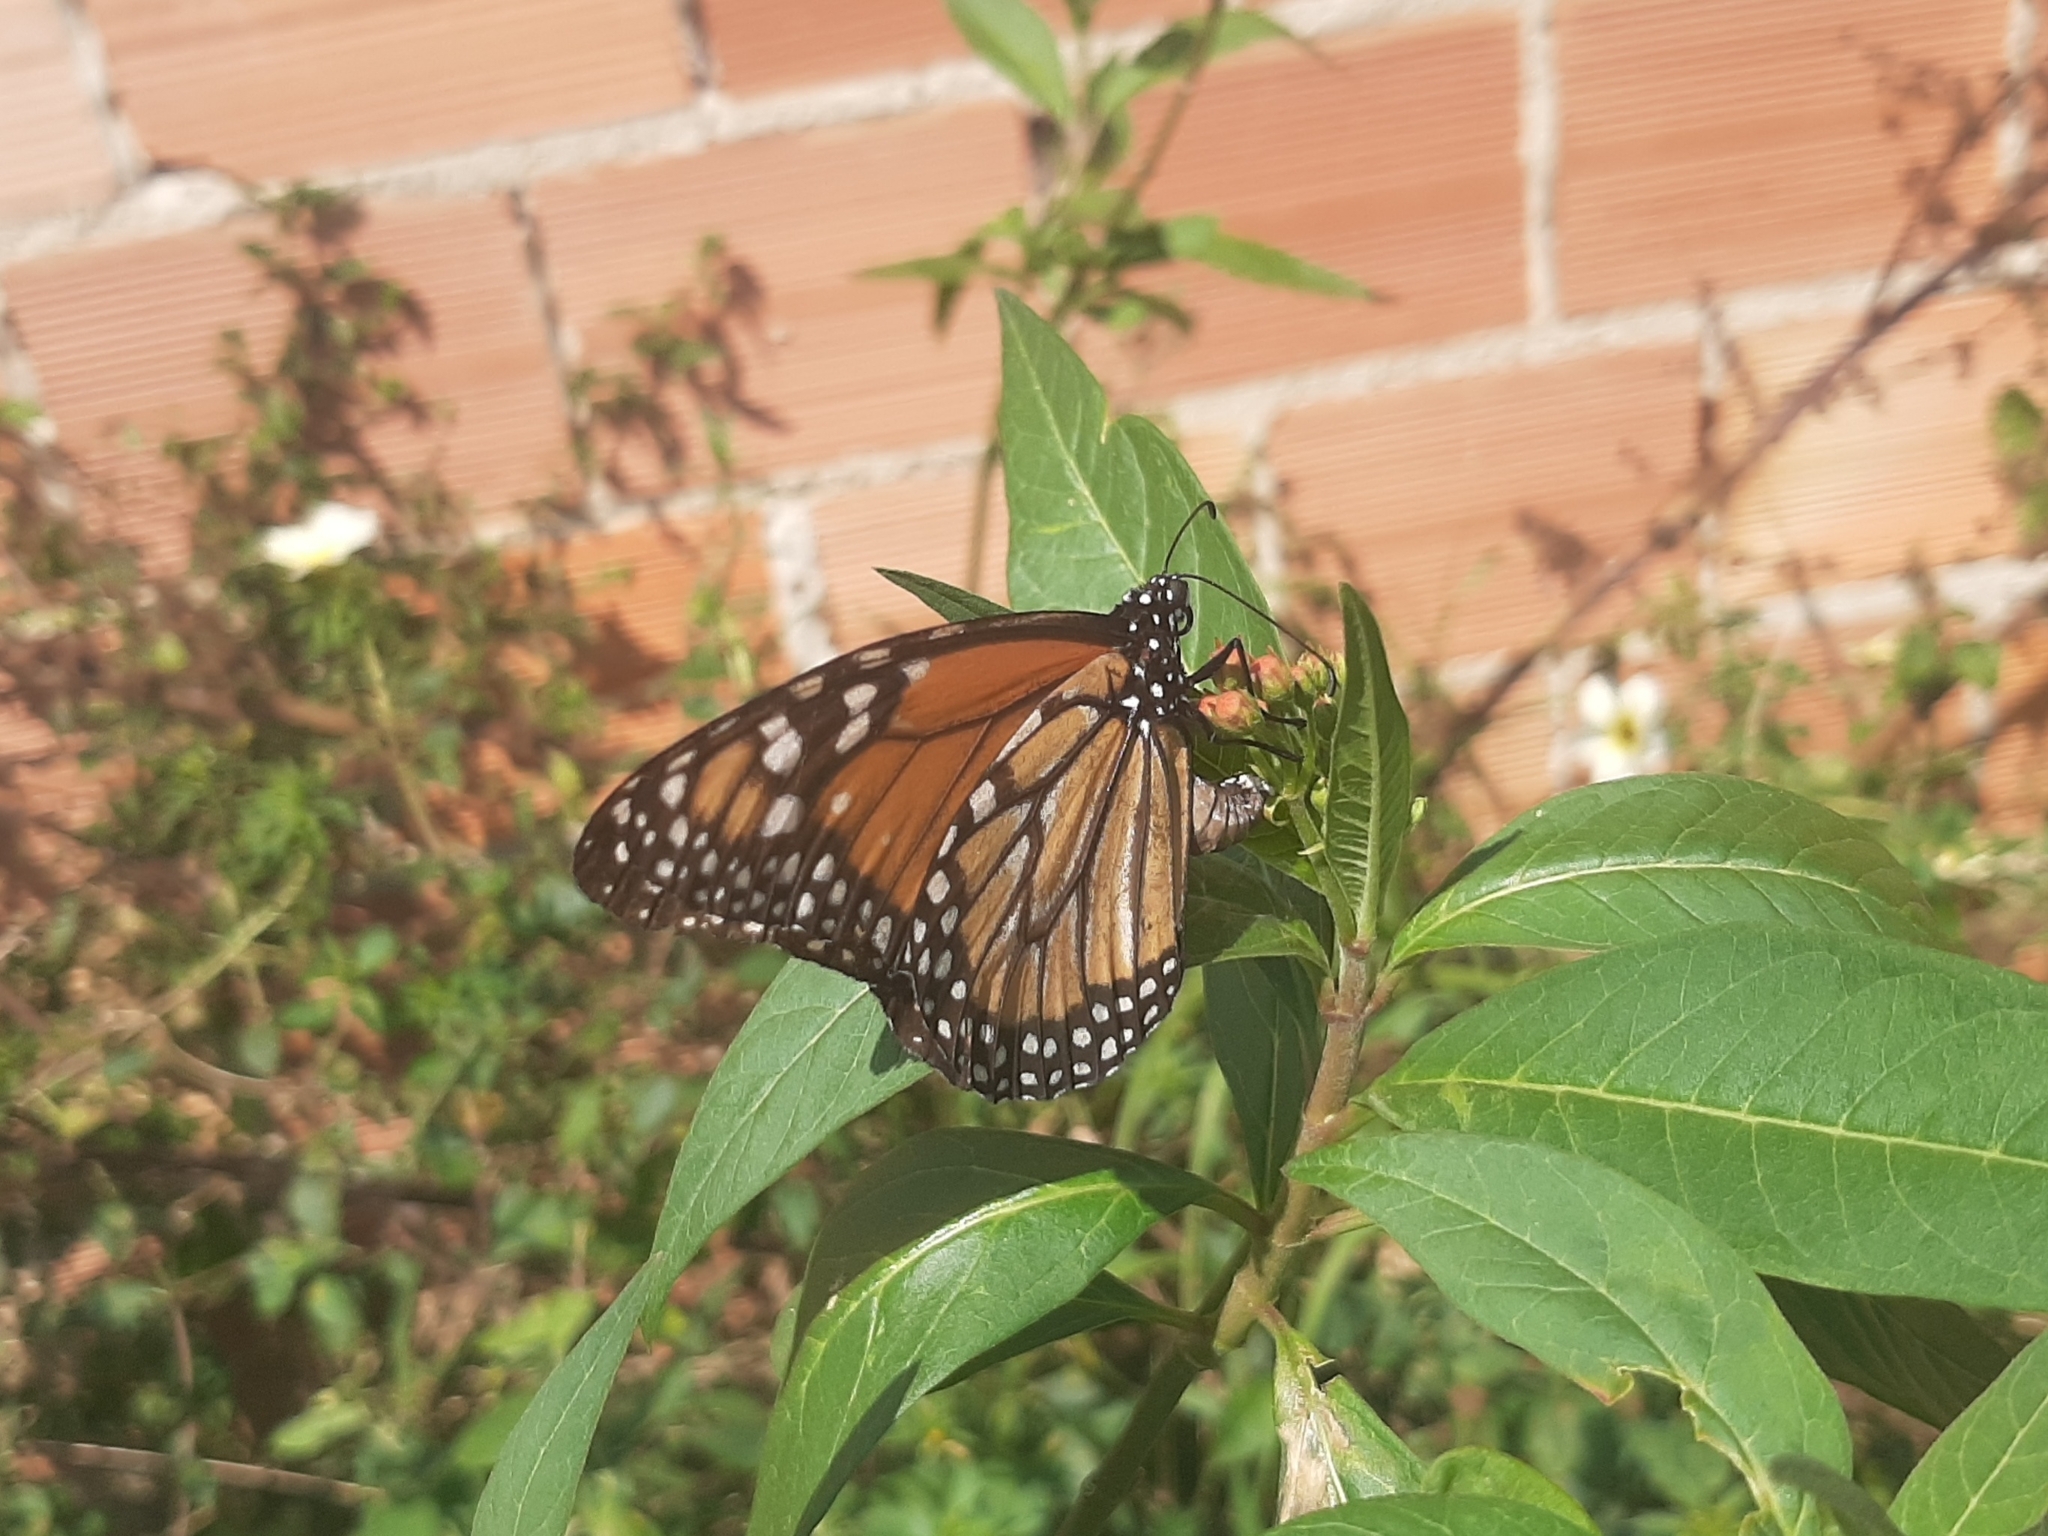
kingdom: Animalia
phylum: Arthropoda
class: Insecta
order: Lepidoptera
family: Nymphalidae
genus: Danaus
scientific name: Danaus erippus
